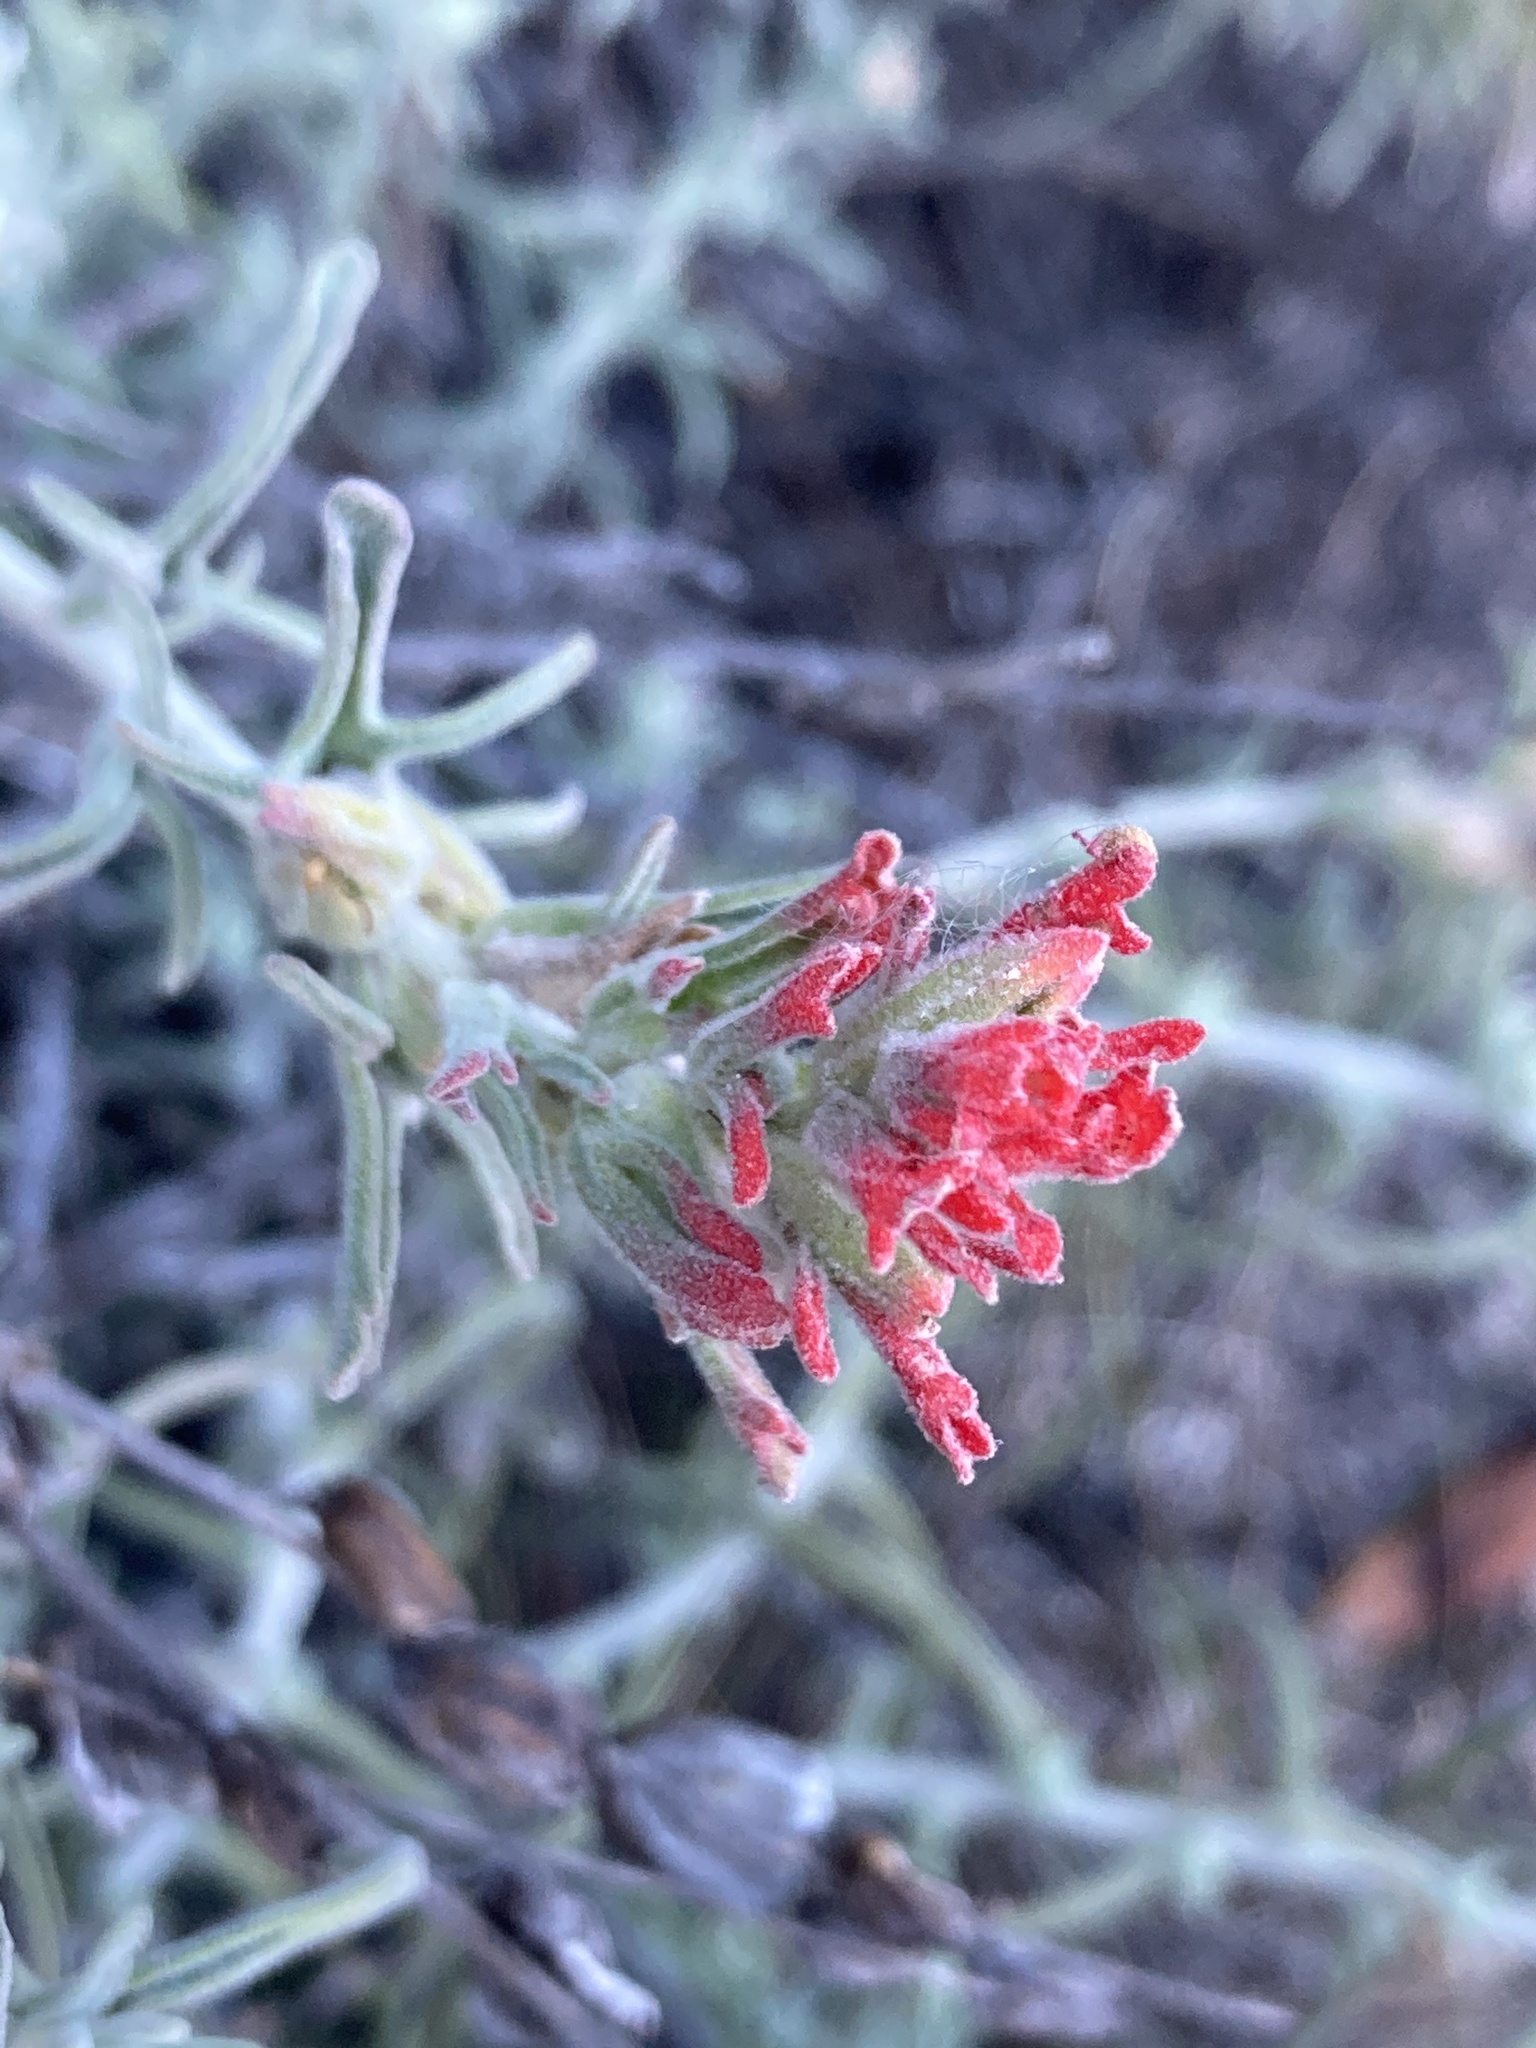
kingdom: Plantae
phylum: Tracheophyta
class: Magnoliopsida
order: Lamiales
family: Orobanchaceae
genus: Castilleja
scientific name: Castilleja foliolosa
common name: Woolly indian paintbrush
